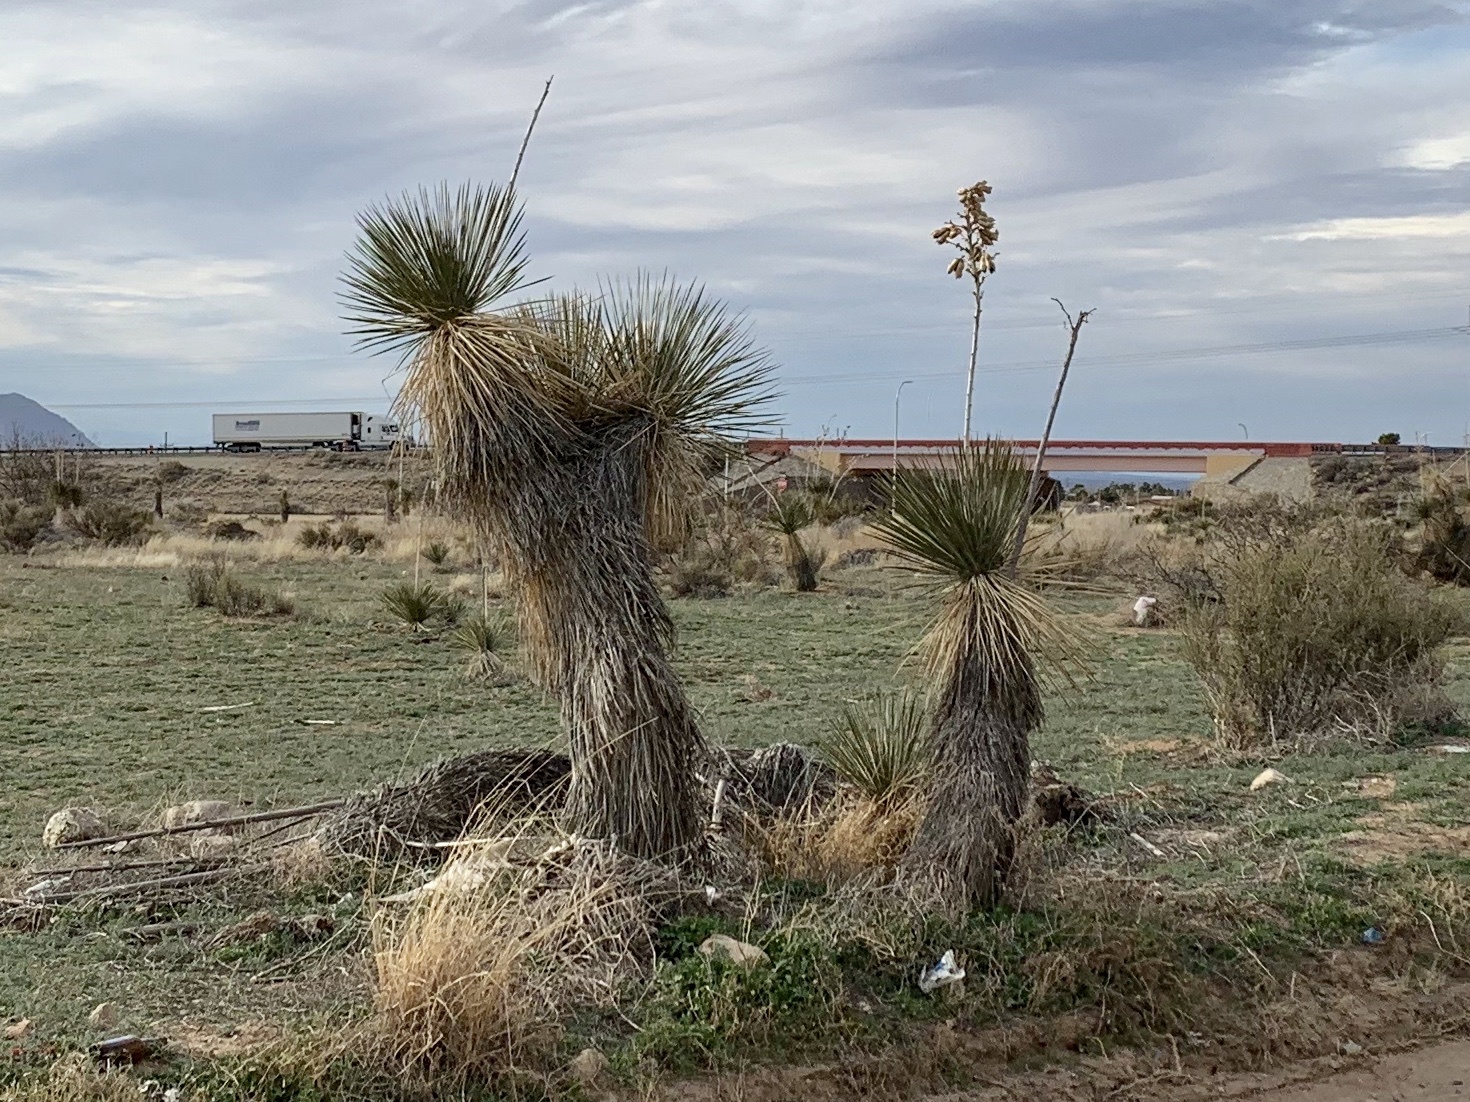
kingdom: Plantae
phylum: Tracheophyta
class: Liliopsida
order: Asparagales
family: Asparagaceae
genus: Yucca
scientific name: Yucca elata
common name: Palmella
